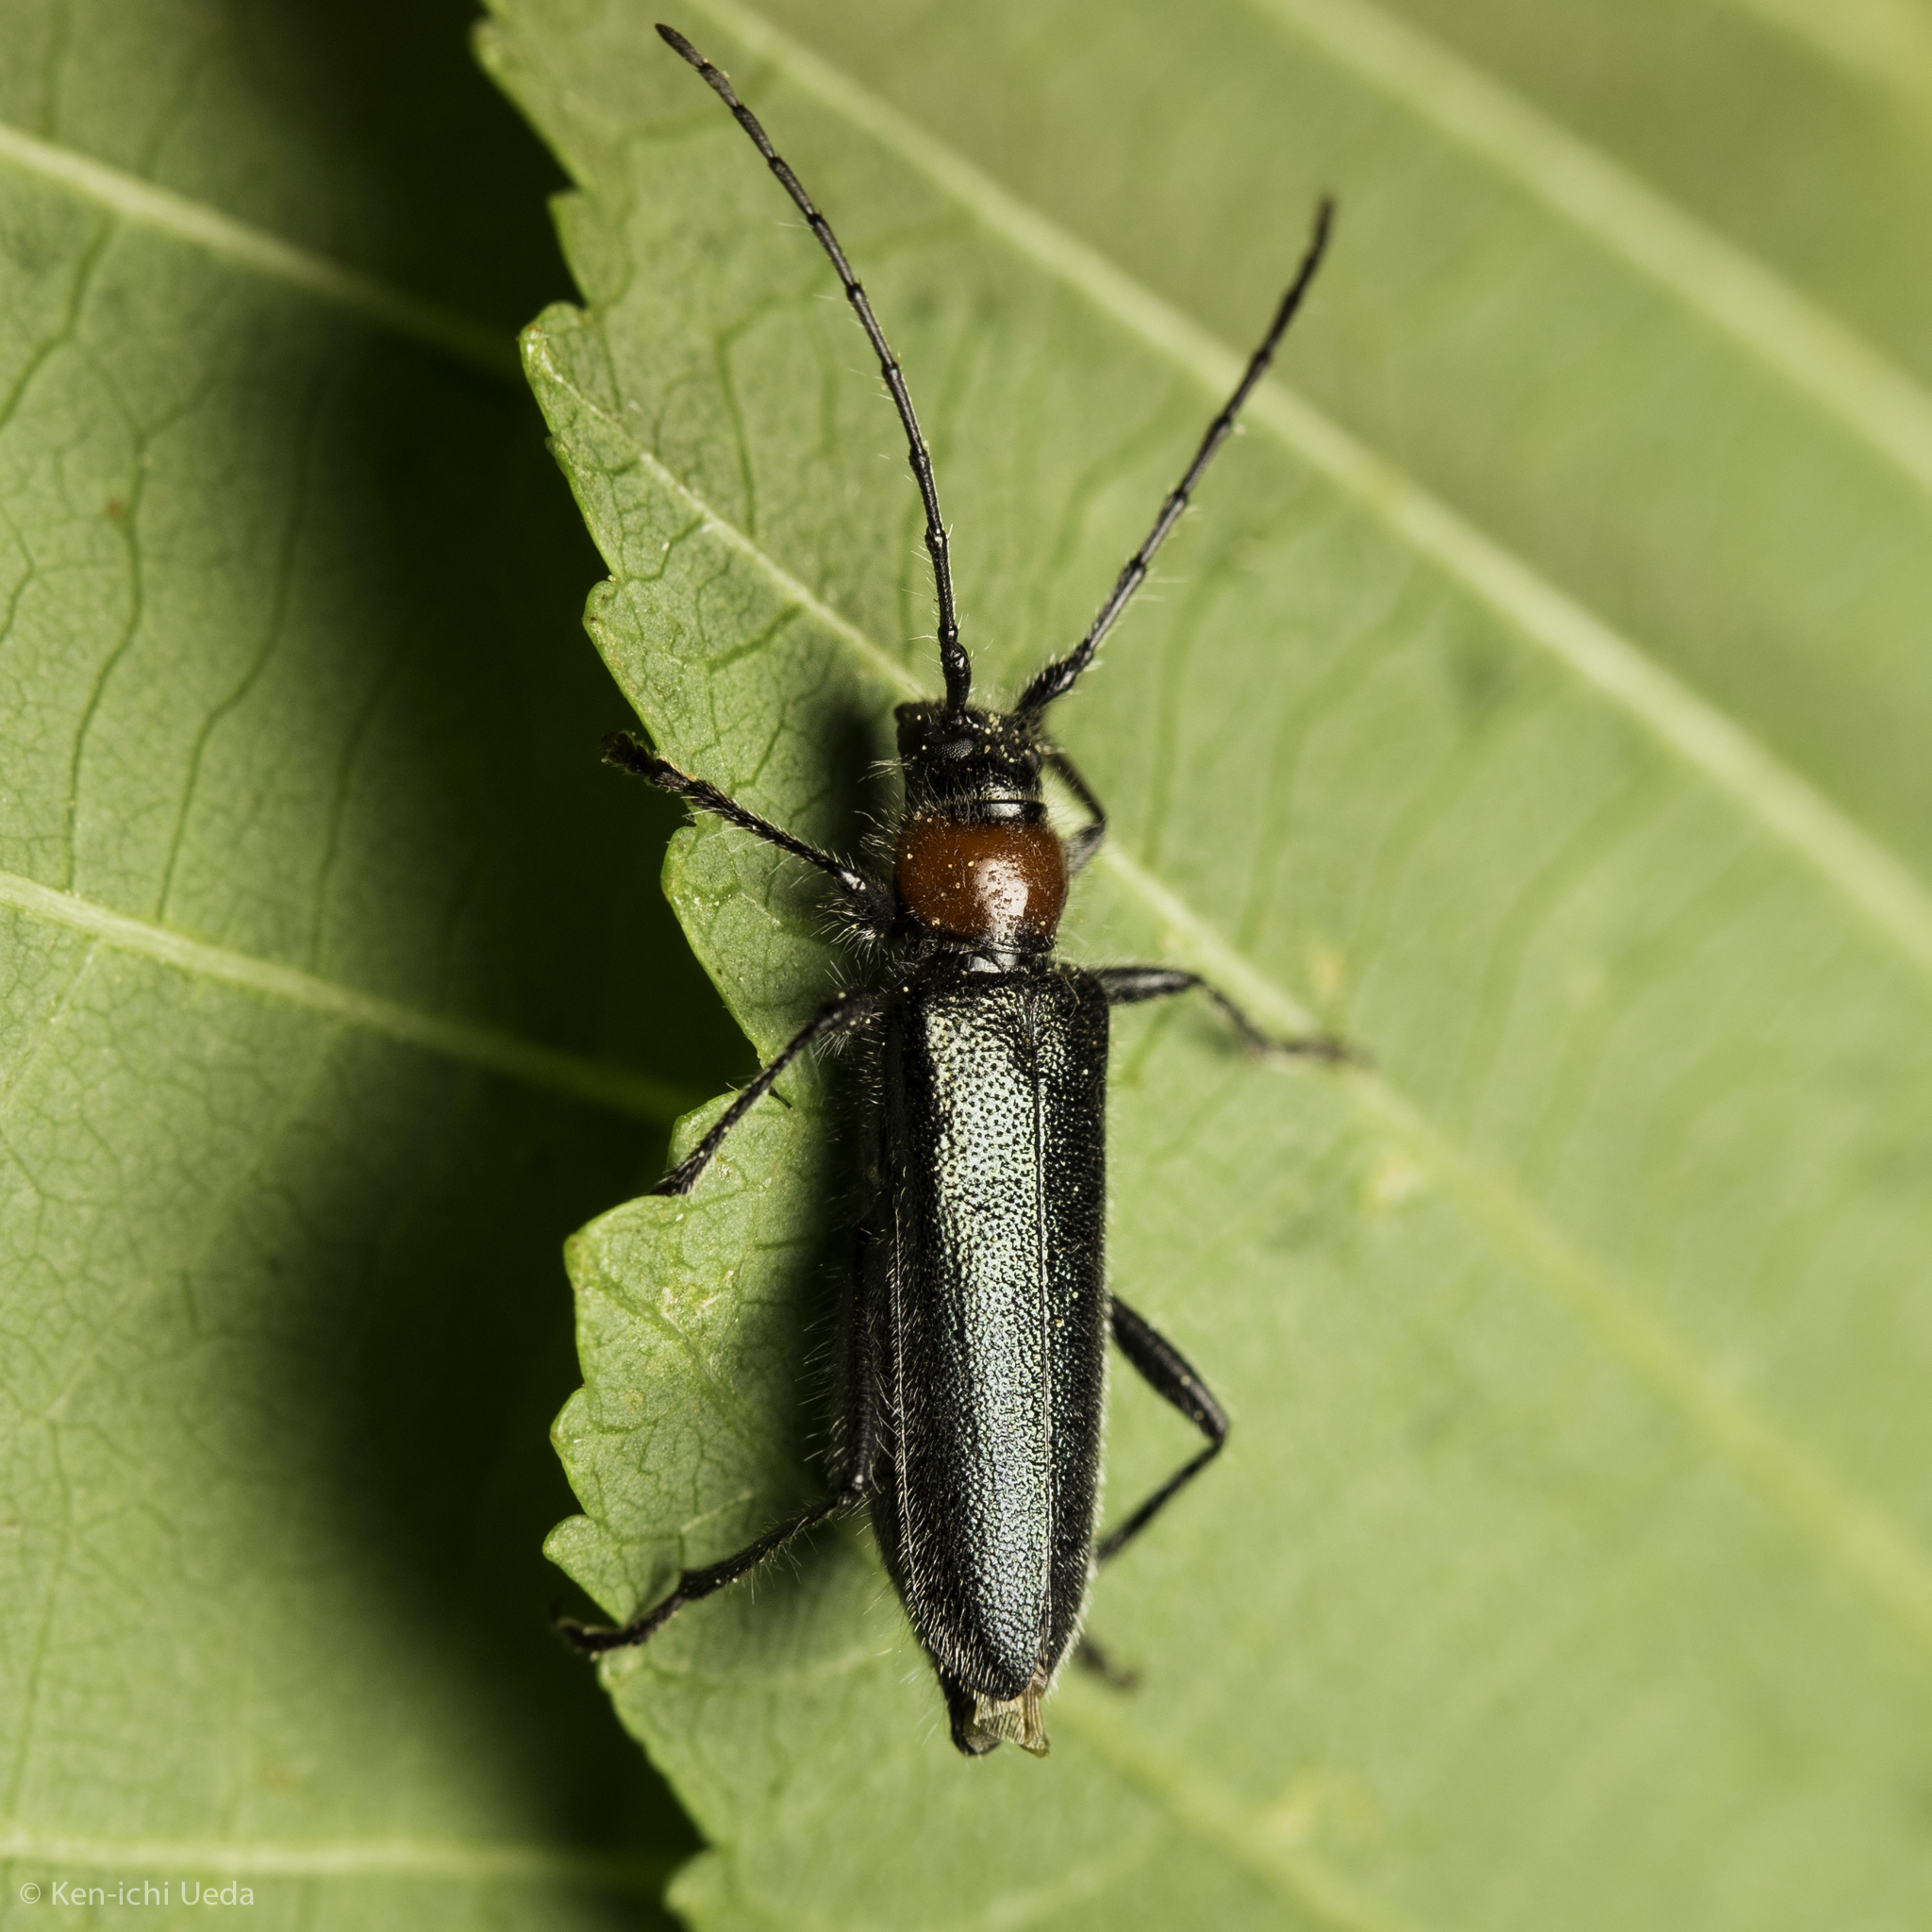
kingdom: Animalia
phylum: Arthropoda
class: Insecta
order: Coleoptera
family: Cerambycidae
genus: Pronocera
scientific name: Pronocera collaris
